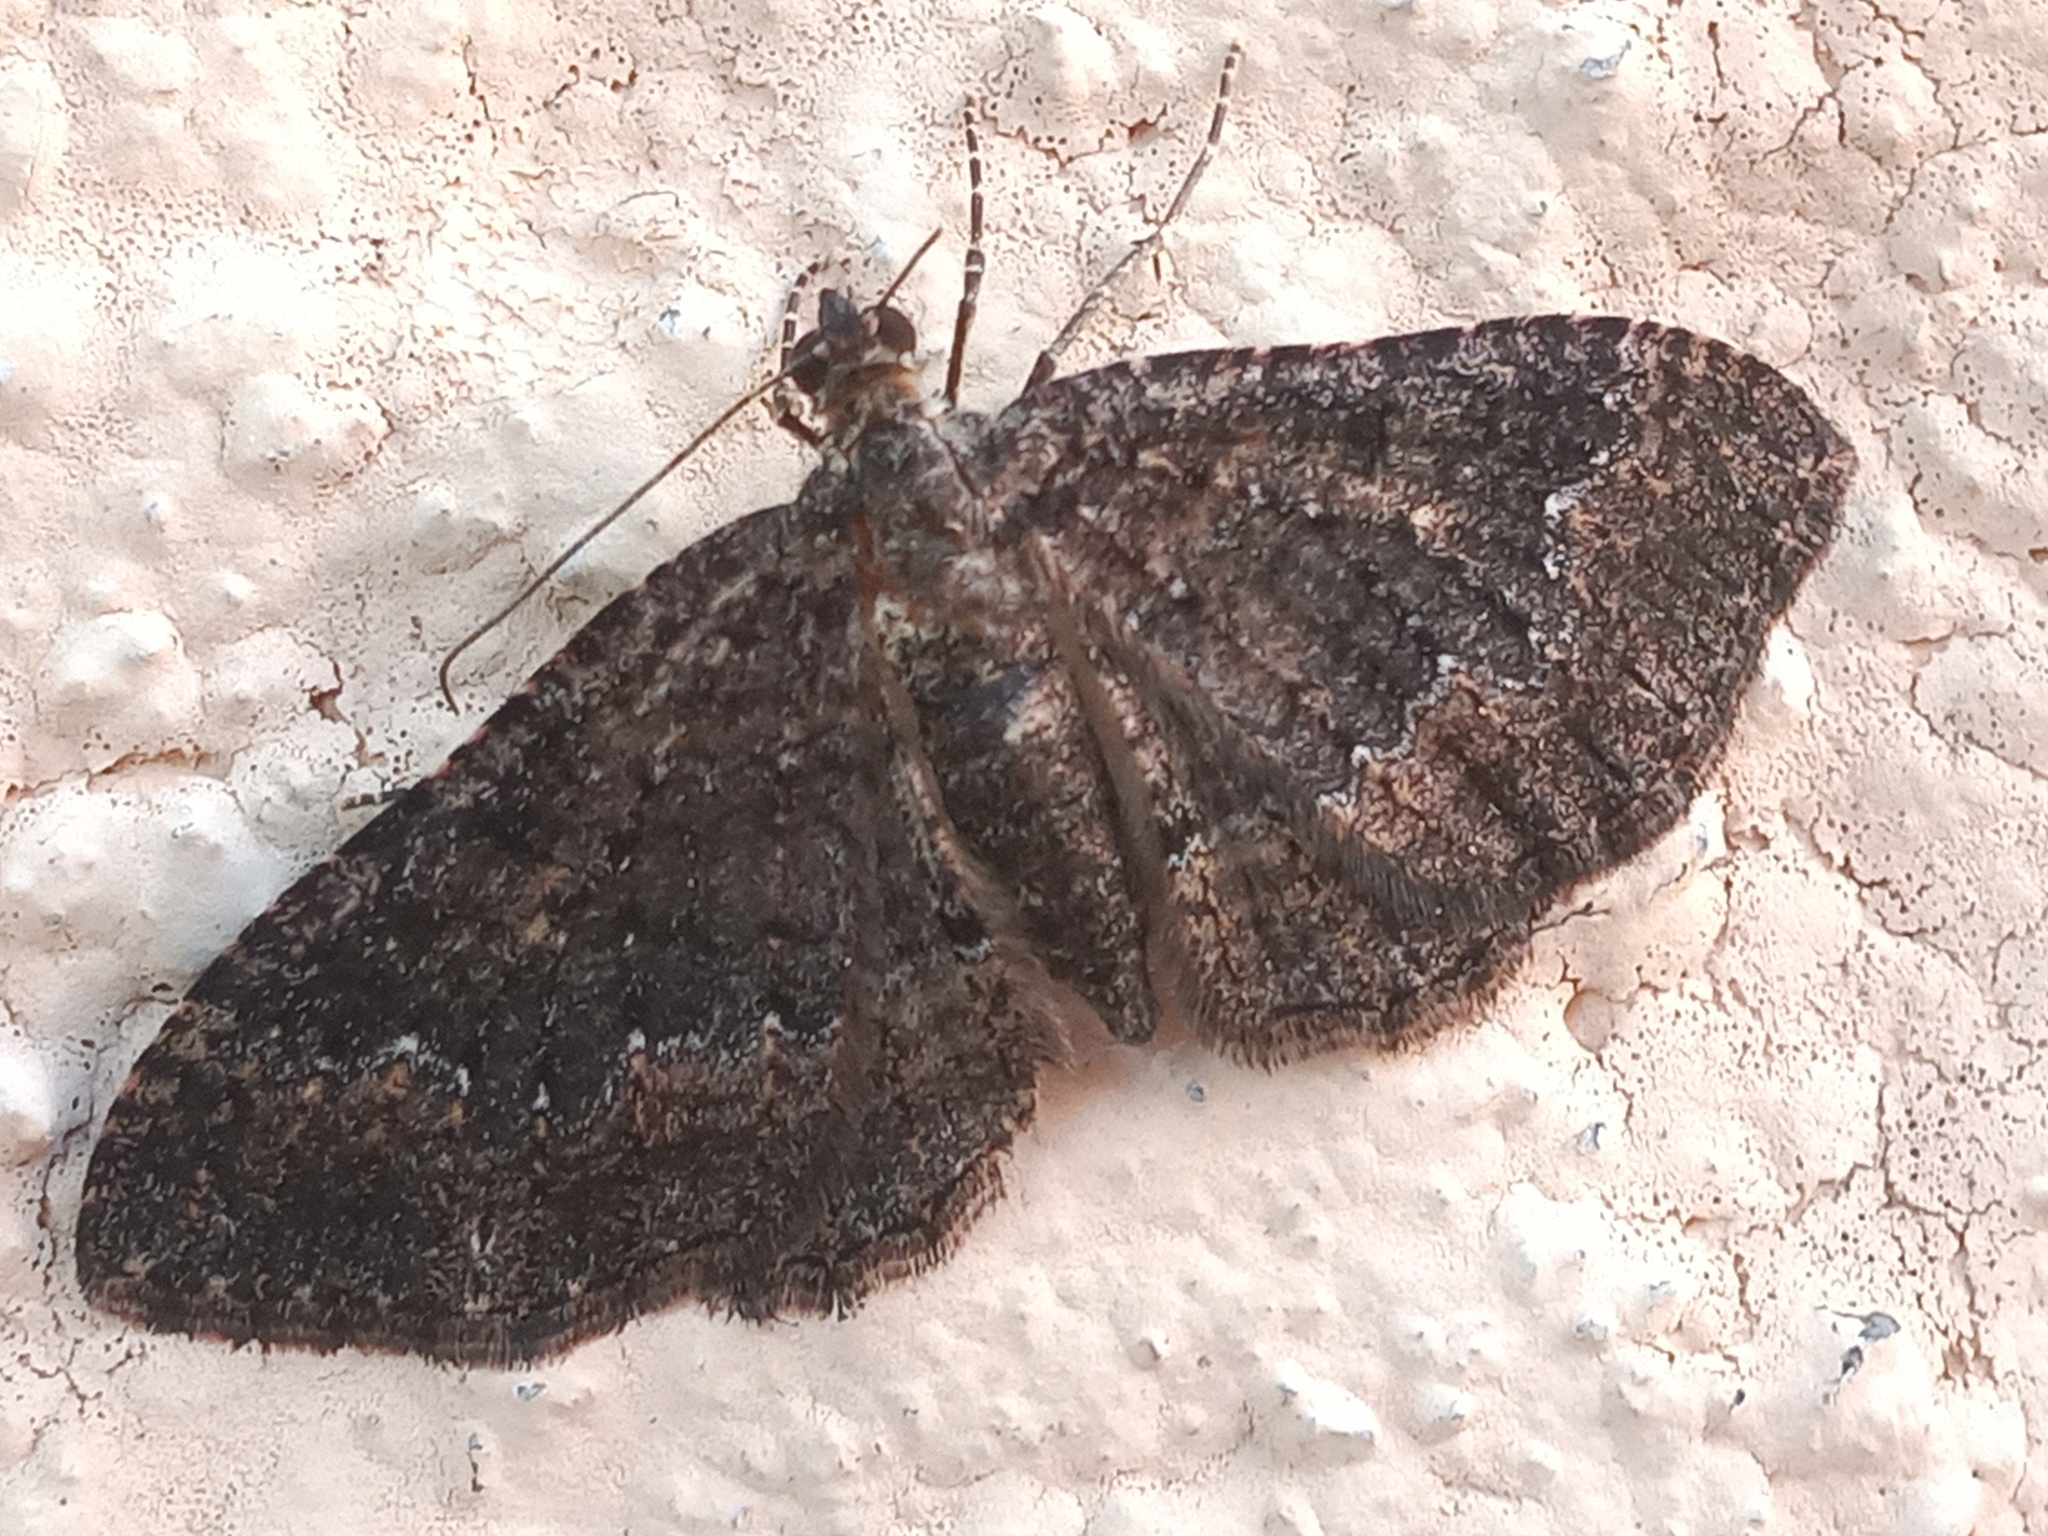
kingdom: Animalia
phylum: Arthropoda
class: Insecta
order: Lepidoptera
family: Geometridae
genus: Disclisioprocta
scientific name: Disclisioprocta stellata
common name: Somber carpet
